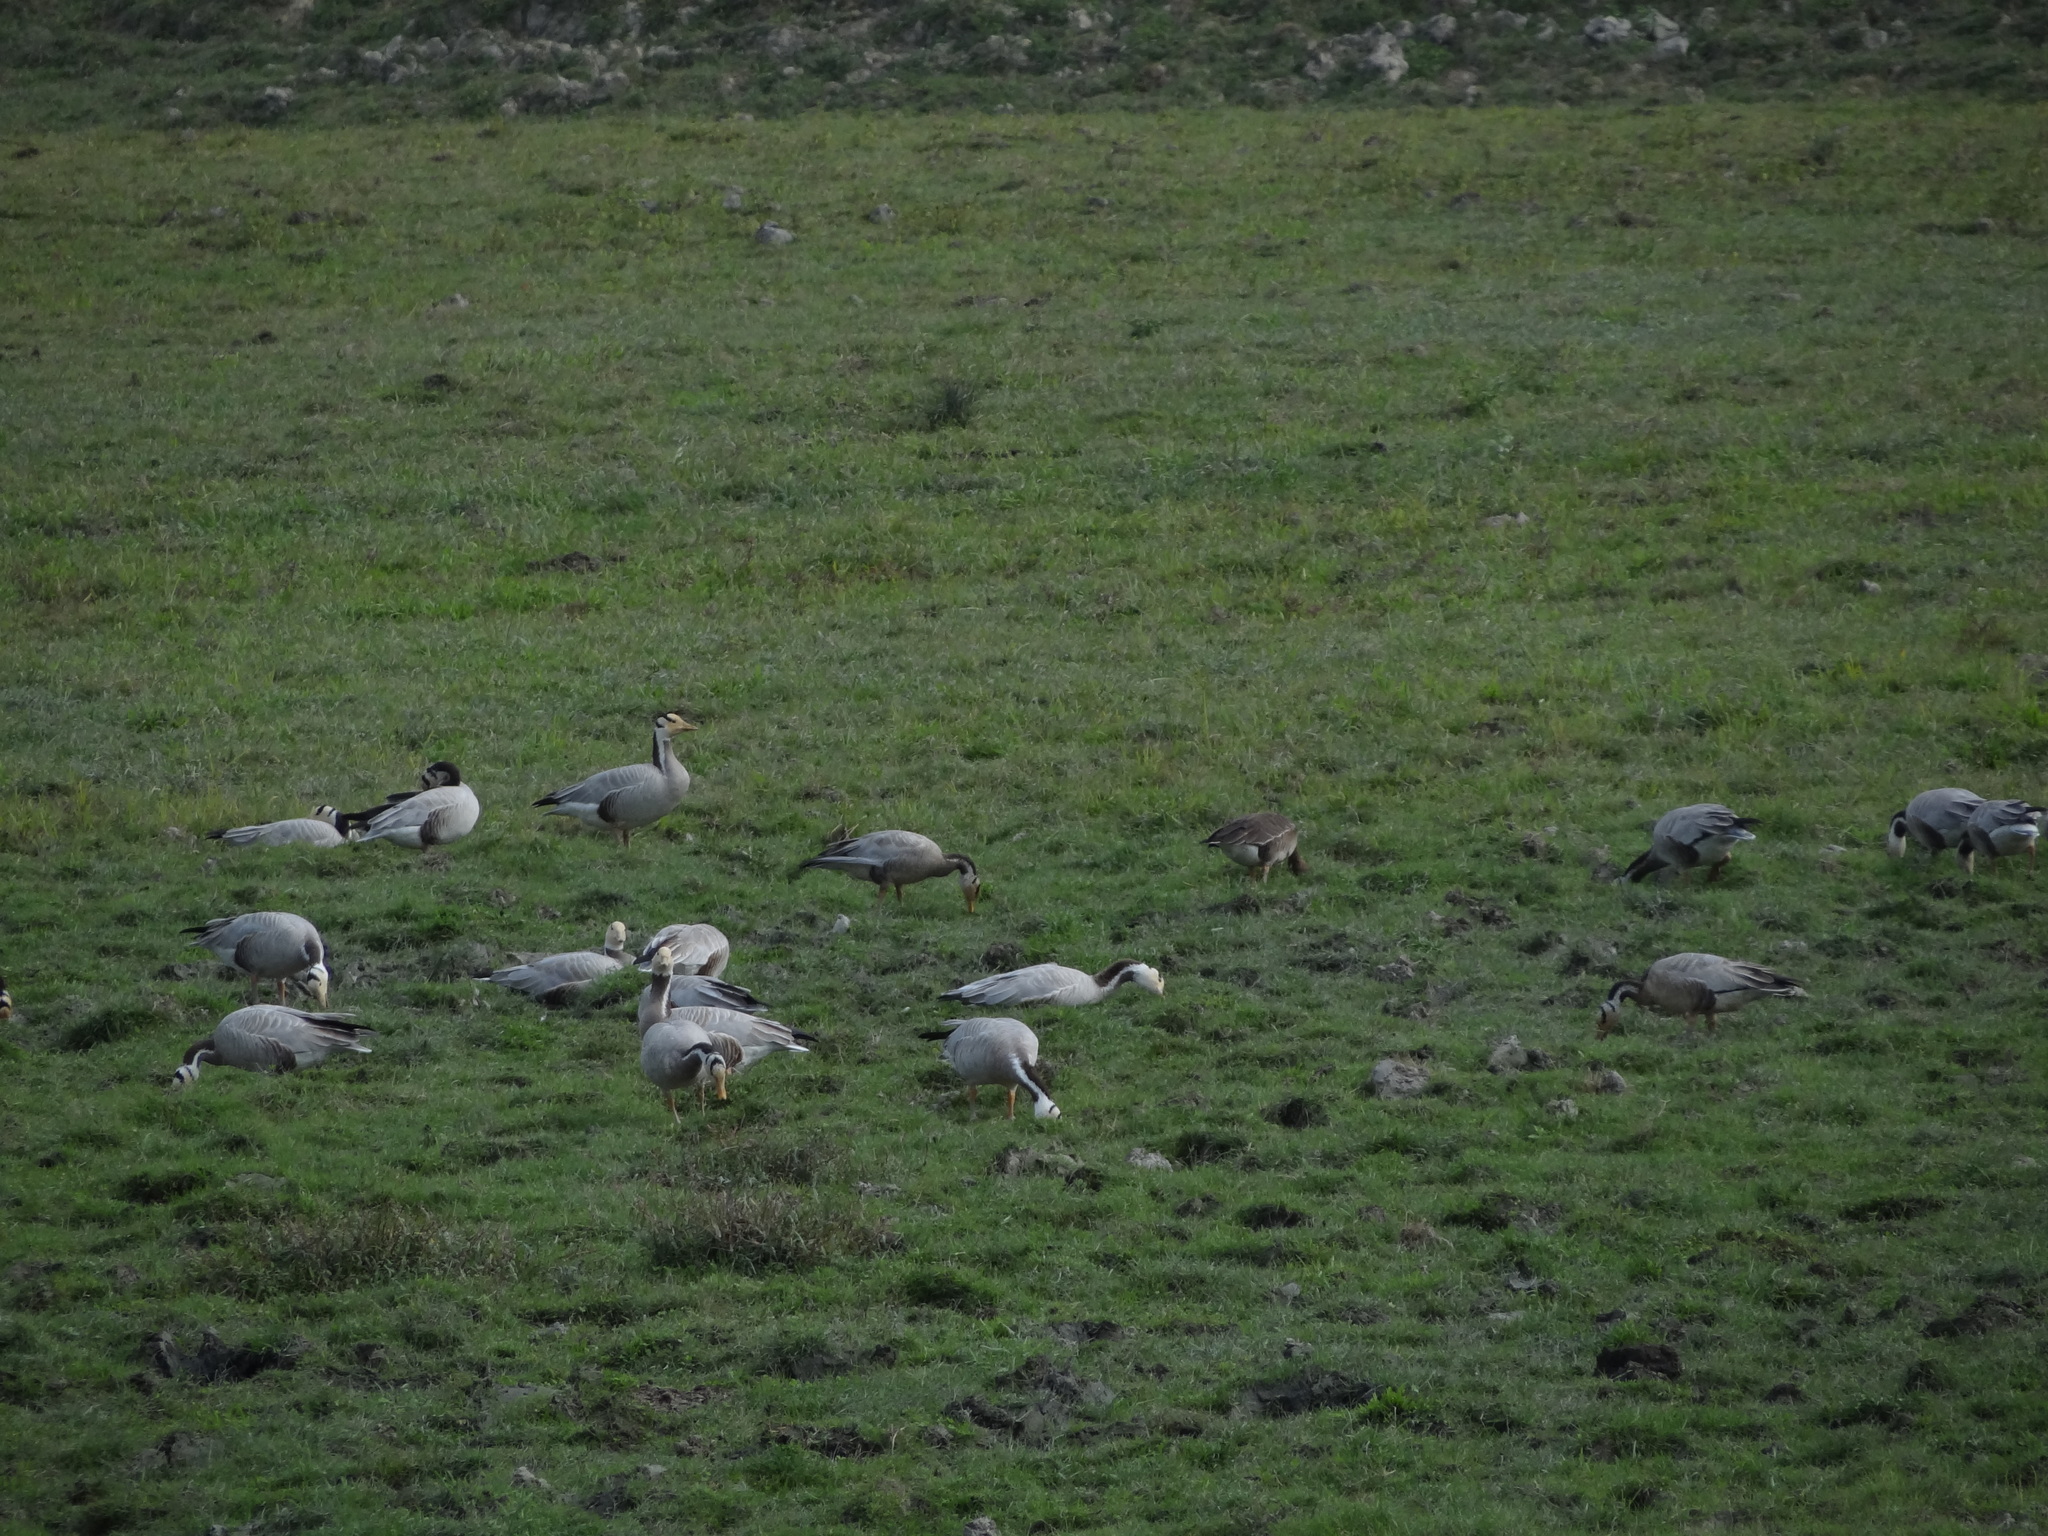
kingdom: Animalia
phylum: Chordata
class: Aves
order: Anseriformes
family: Anatidae
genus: Anser
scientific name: Anser albifrons
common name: Greater white-fronted goose
